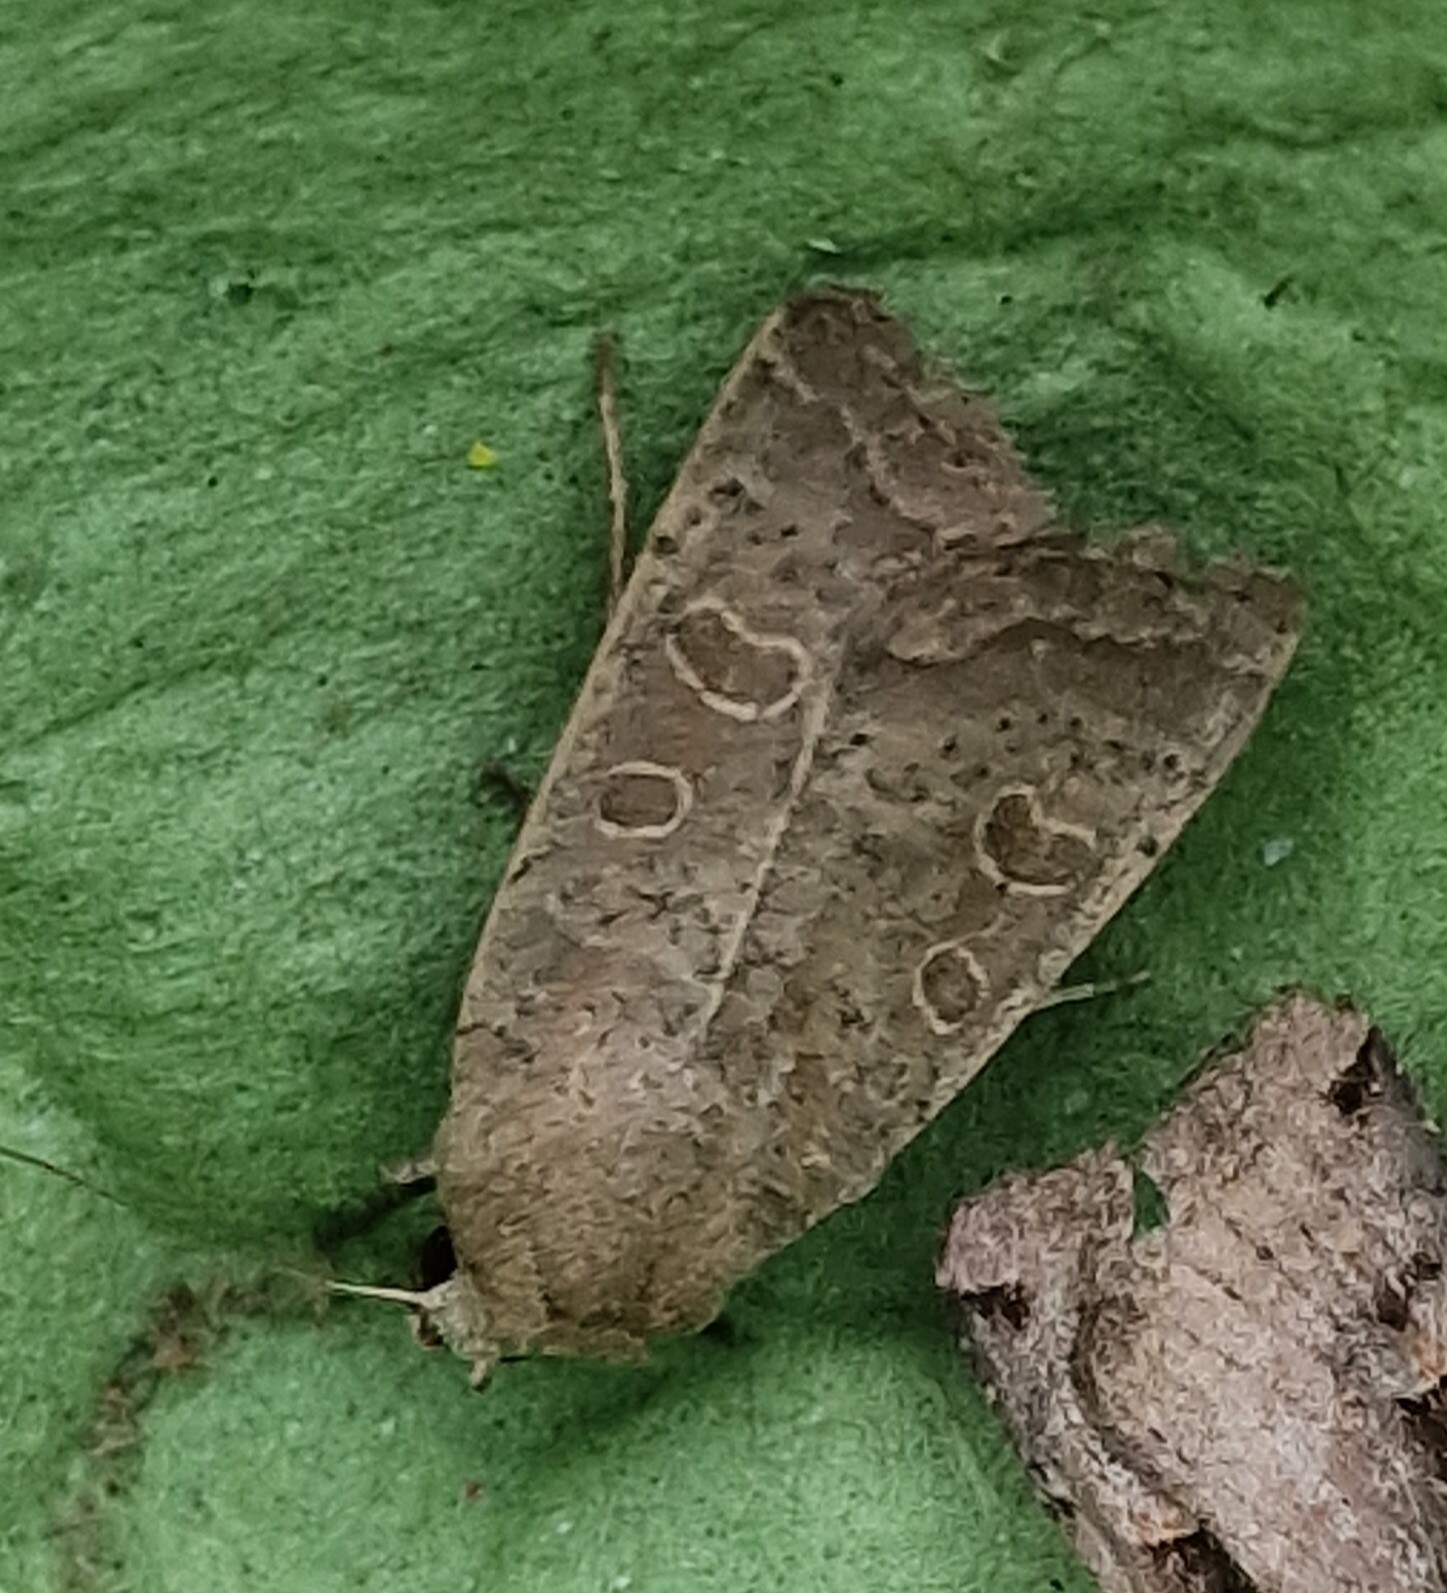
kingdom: Animalia
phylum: Arthropoda
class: Insecta
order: Lepidoptera
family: Noctuidae
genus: Hoplodrina
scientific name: Hoplodrina ambigua
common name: Vine's rustic
